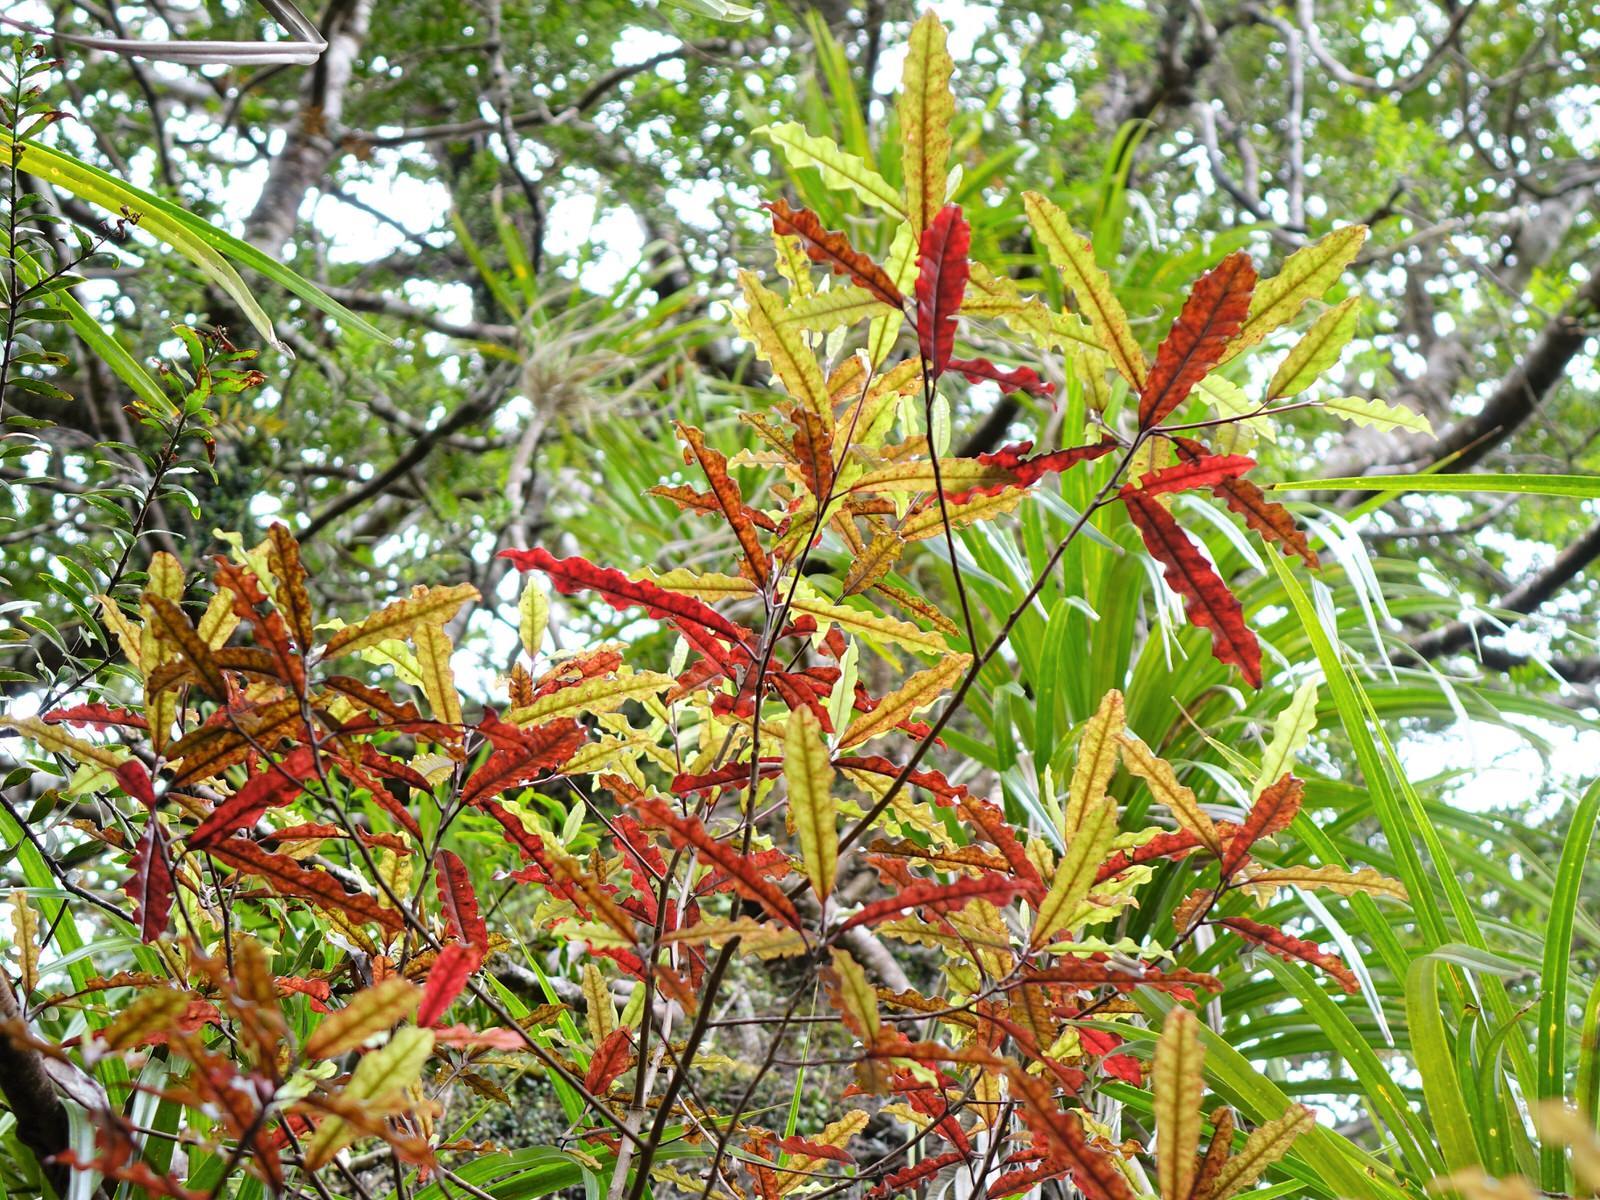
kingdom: Plantae
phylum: Tracheophyta
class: Magnoliopsida
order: Paracryphiales
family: Paracryphiaceae
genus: Quintinia
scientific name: Quintinia serrata
